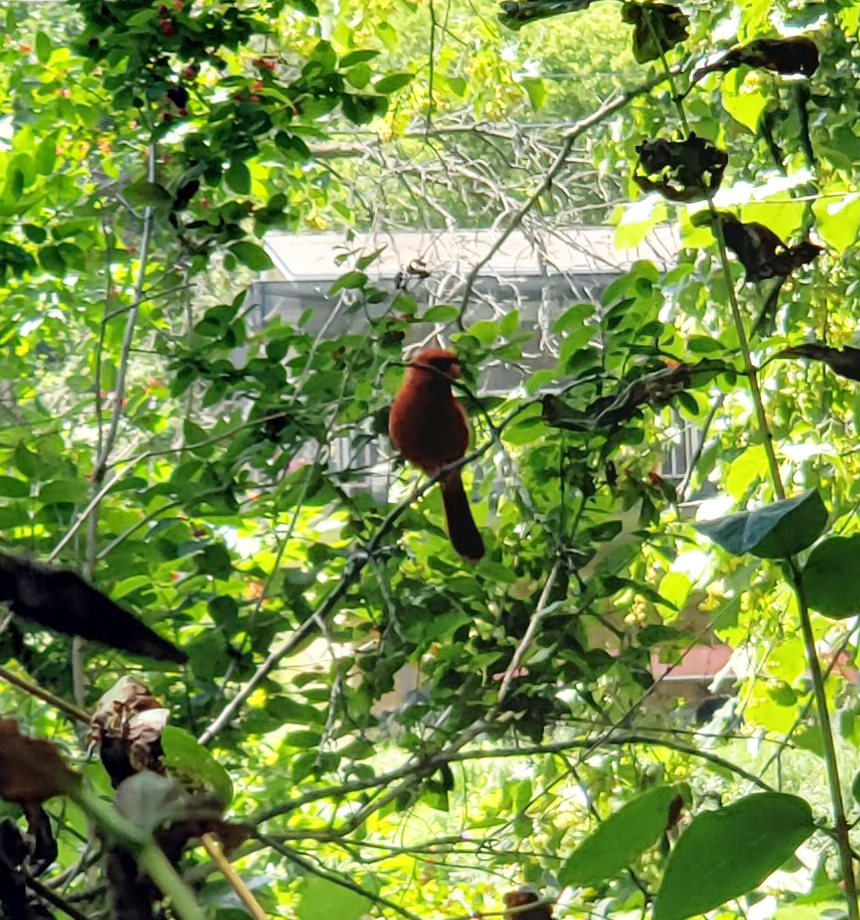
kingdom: Animalia
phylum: Chordata
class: Aves
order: Passeriformes
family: Cardinalidae
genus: Cardinalis
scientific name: Cardinalis cardinalis
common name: Northern cardinal
